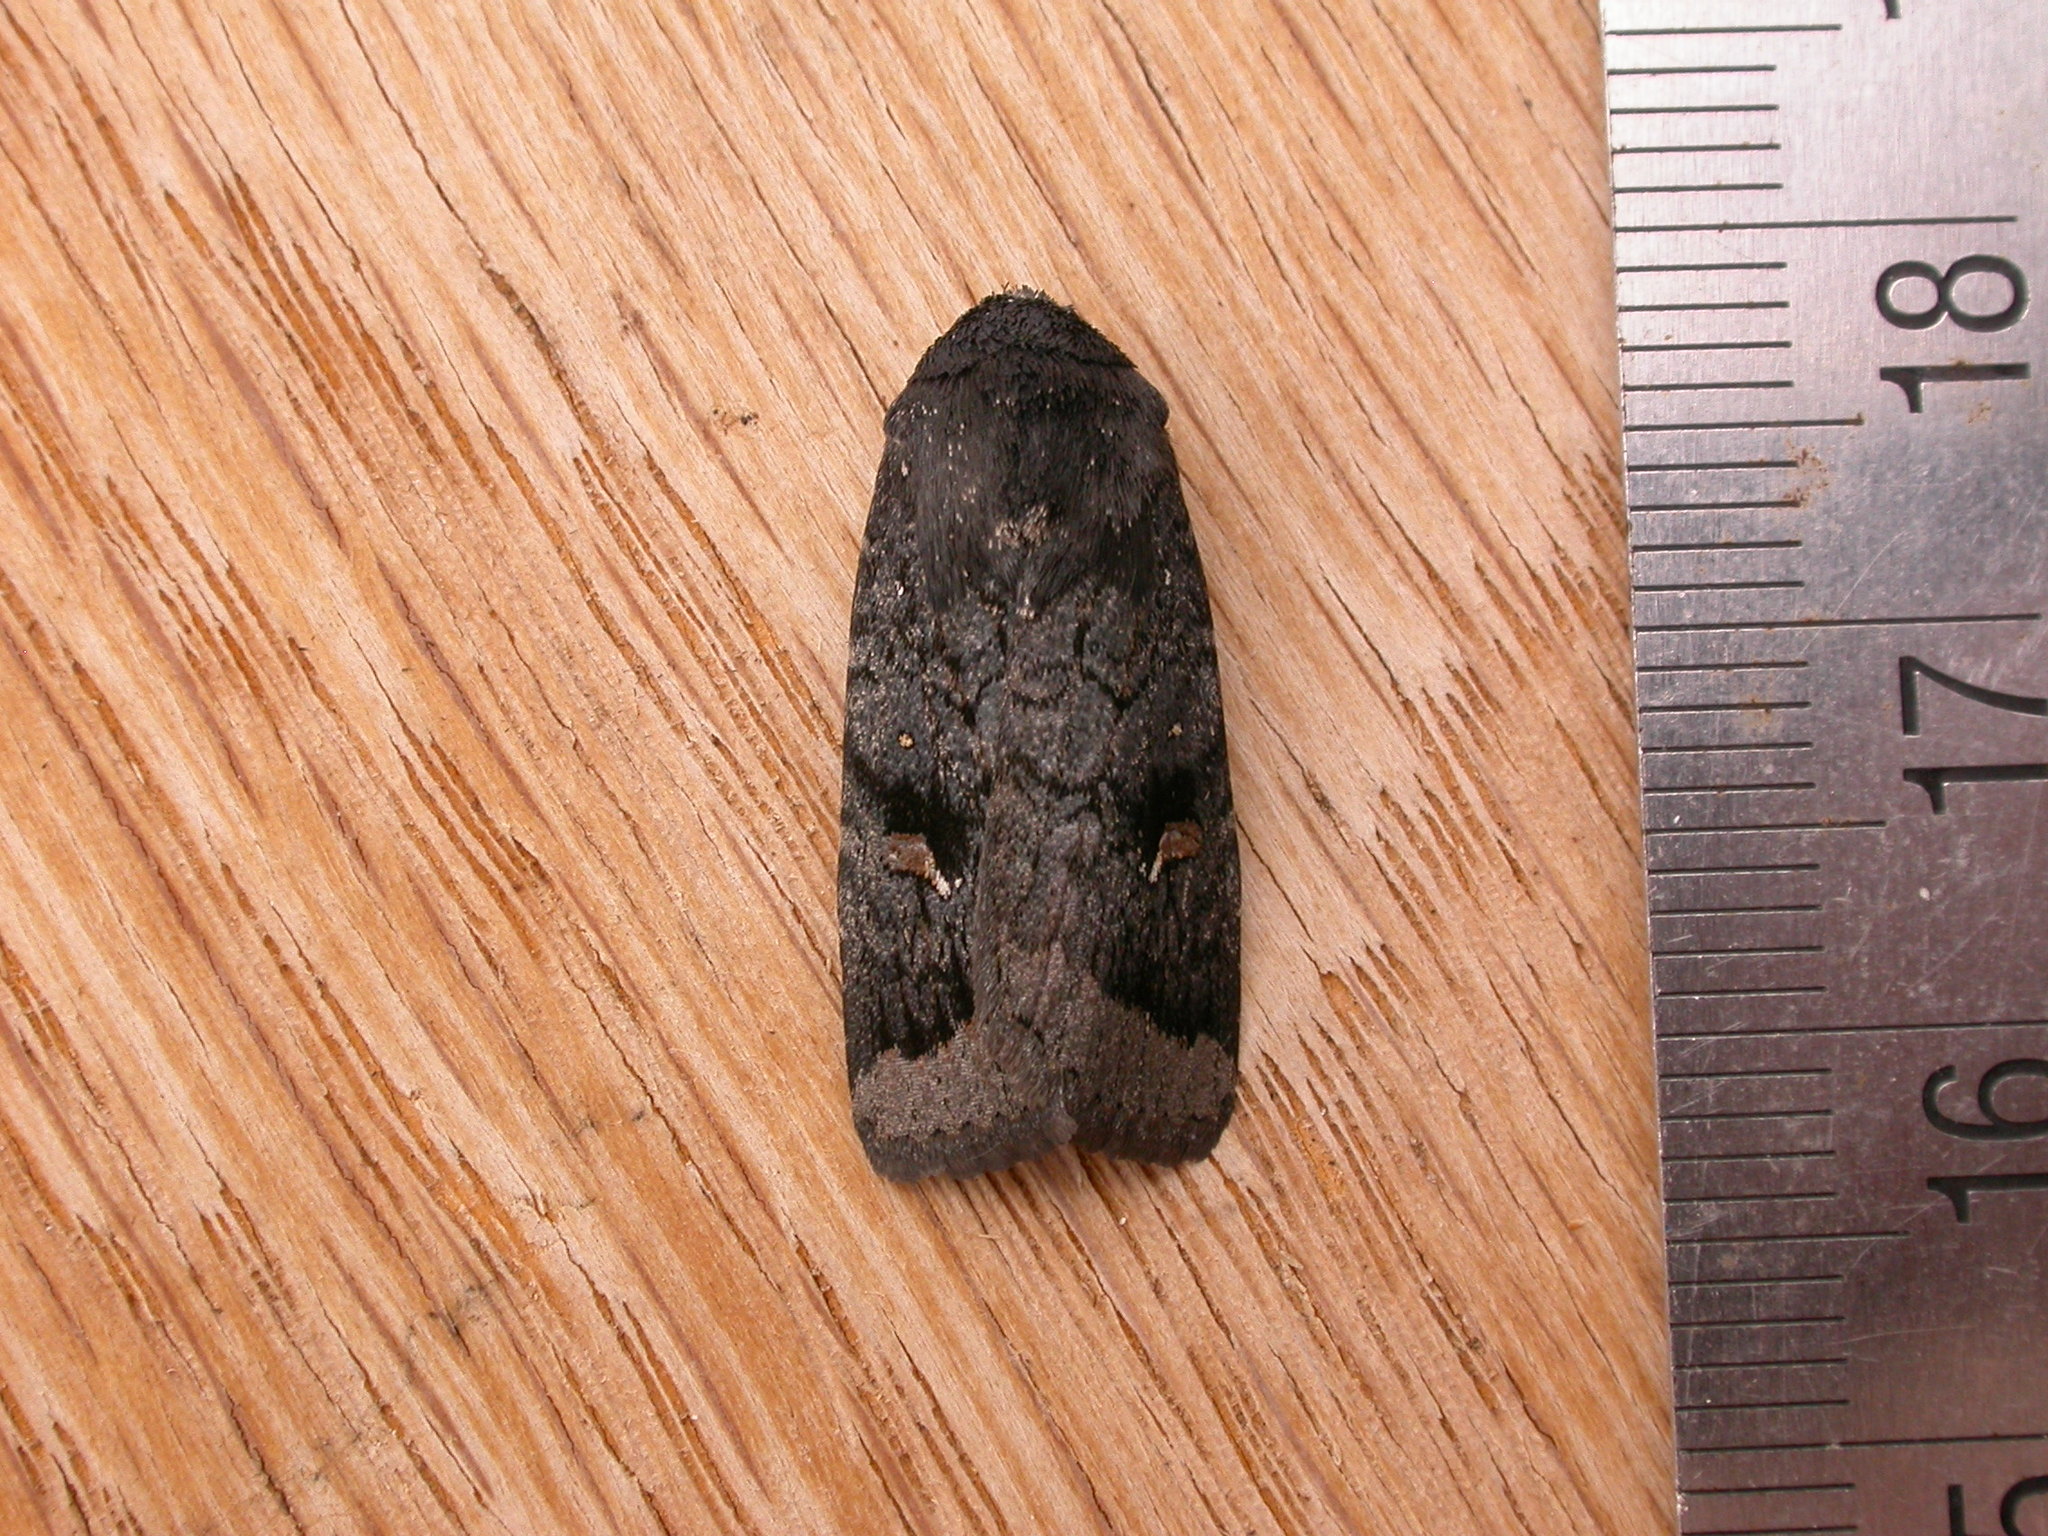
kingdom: Animalia
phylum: Arthropoda
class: Insecta
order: Lepidoptera
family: Noctuidae
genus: Proteuxoa
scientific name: Proteuxoa atra
